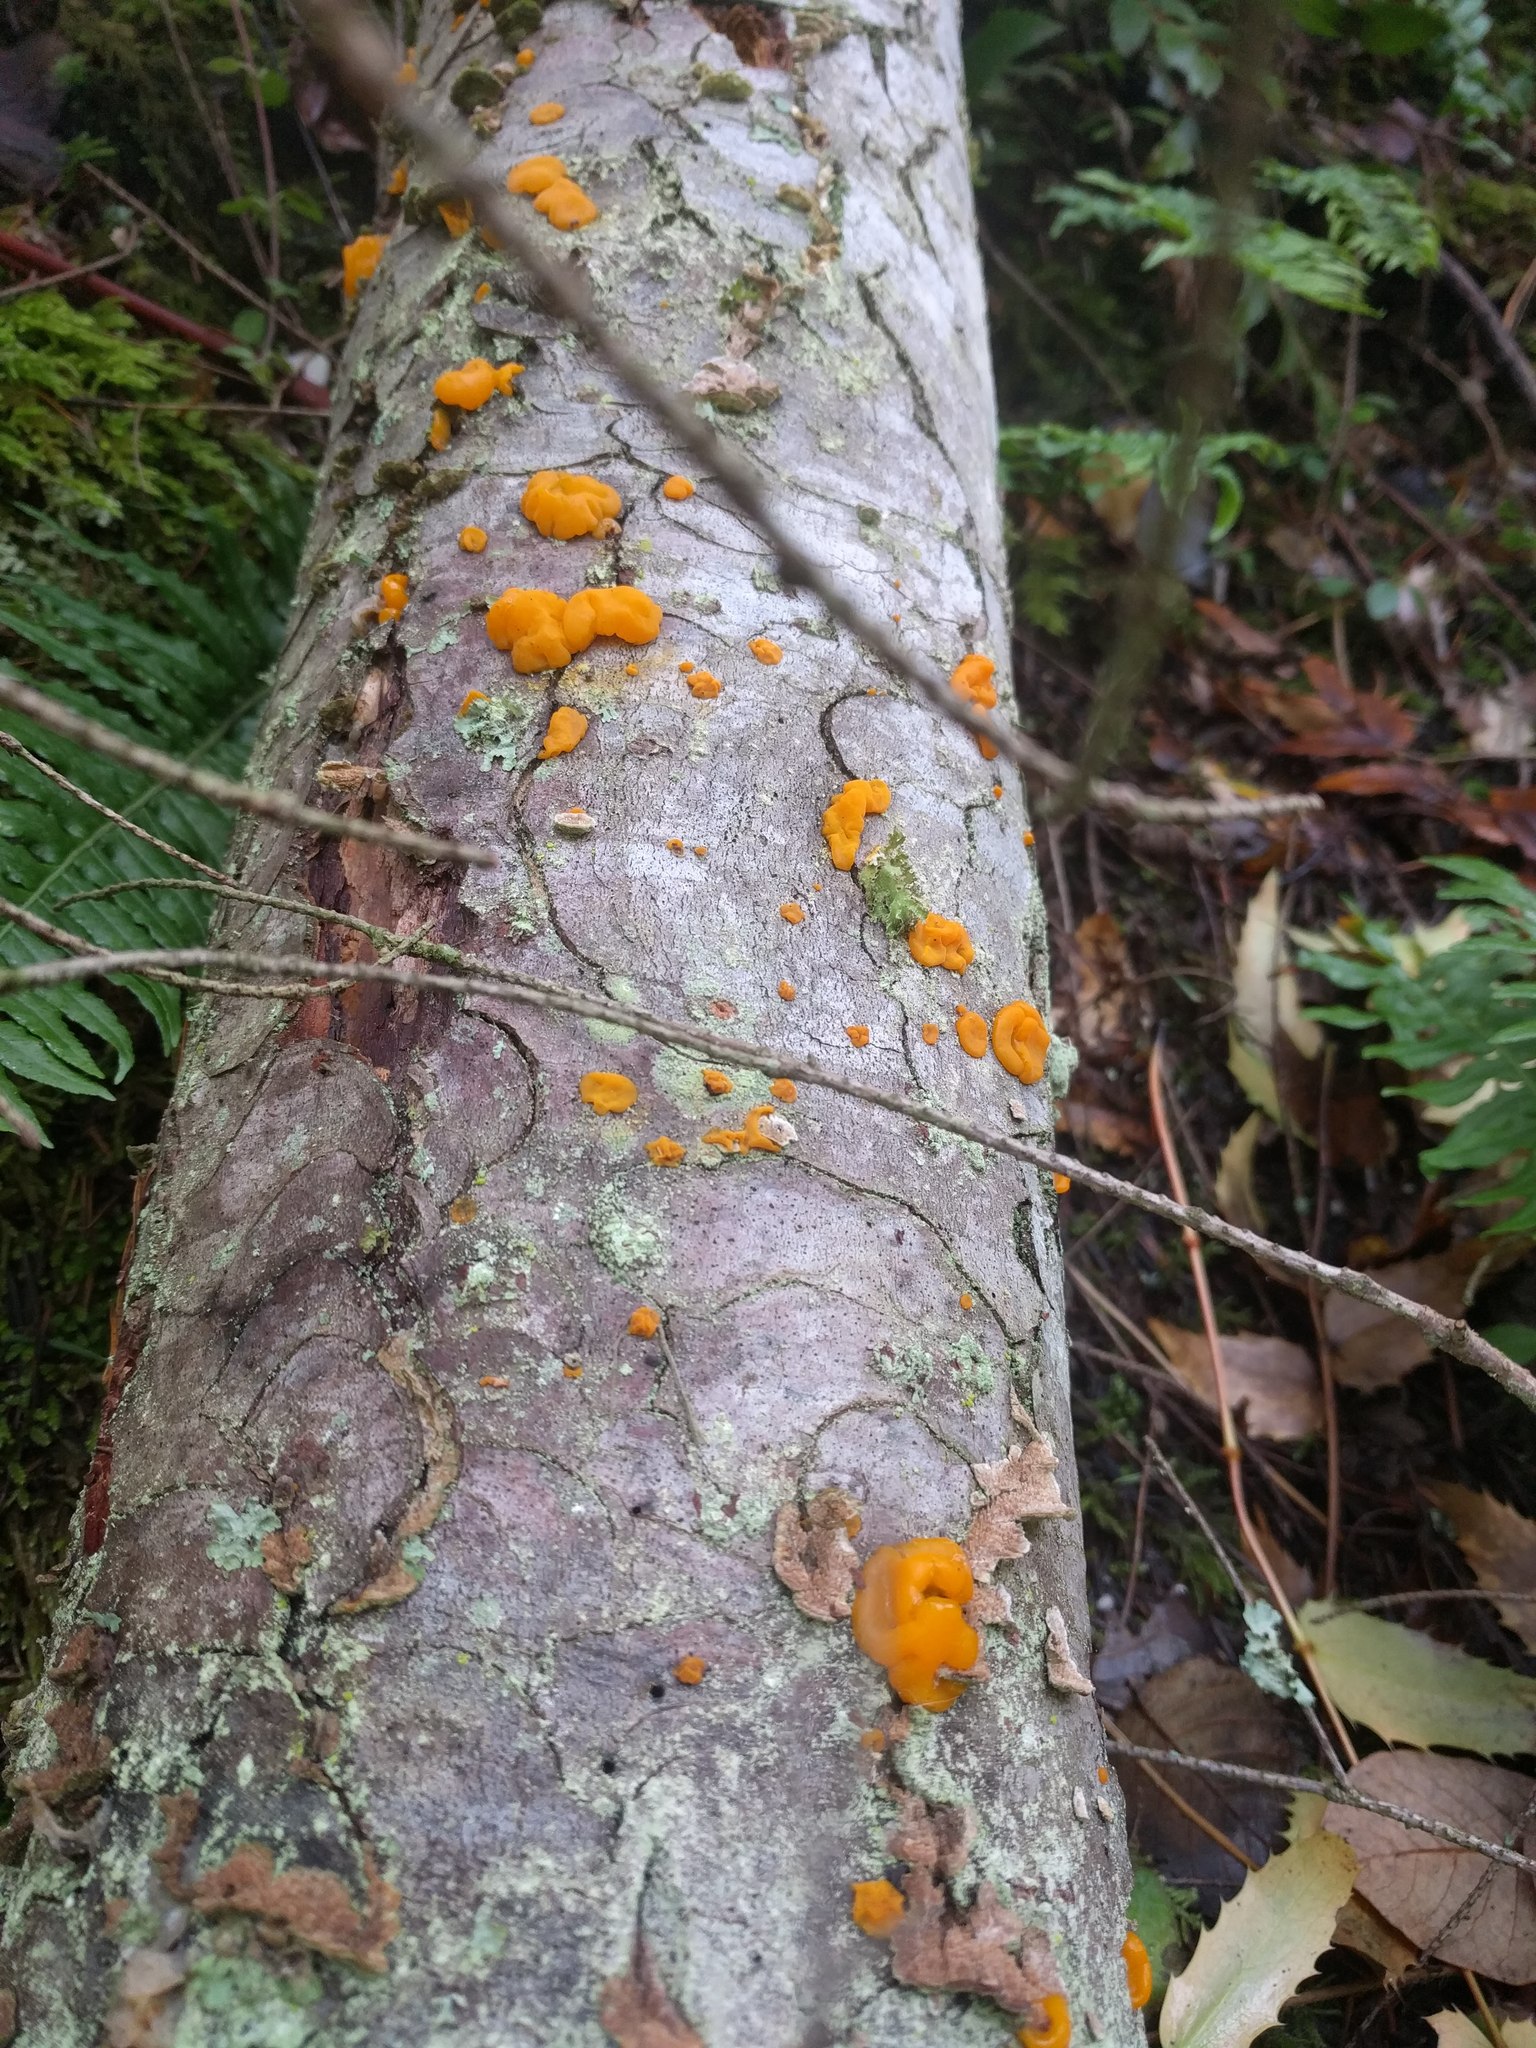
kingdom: Fungi
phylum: Basidiomycota
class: Dacrymycetes
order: Dacrymycetales
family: Dacrymycetaceae
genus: Dacrymyces
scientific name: Dacrymyces chrysospermus
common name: Orange jelly spot
